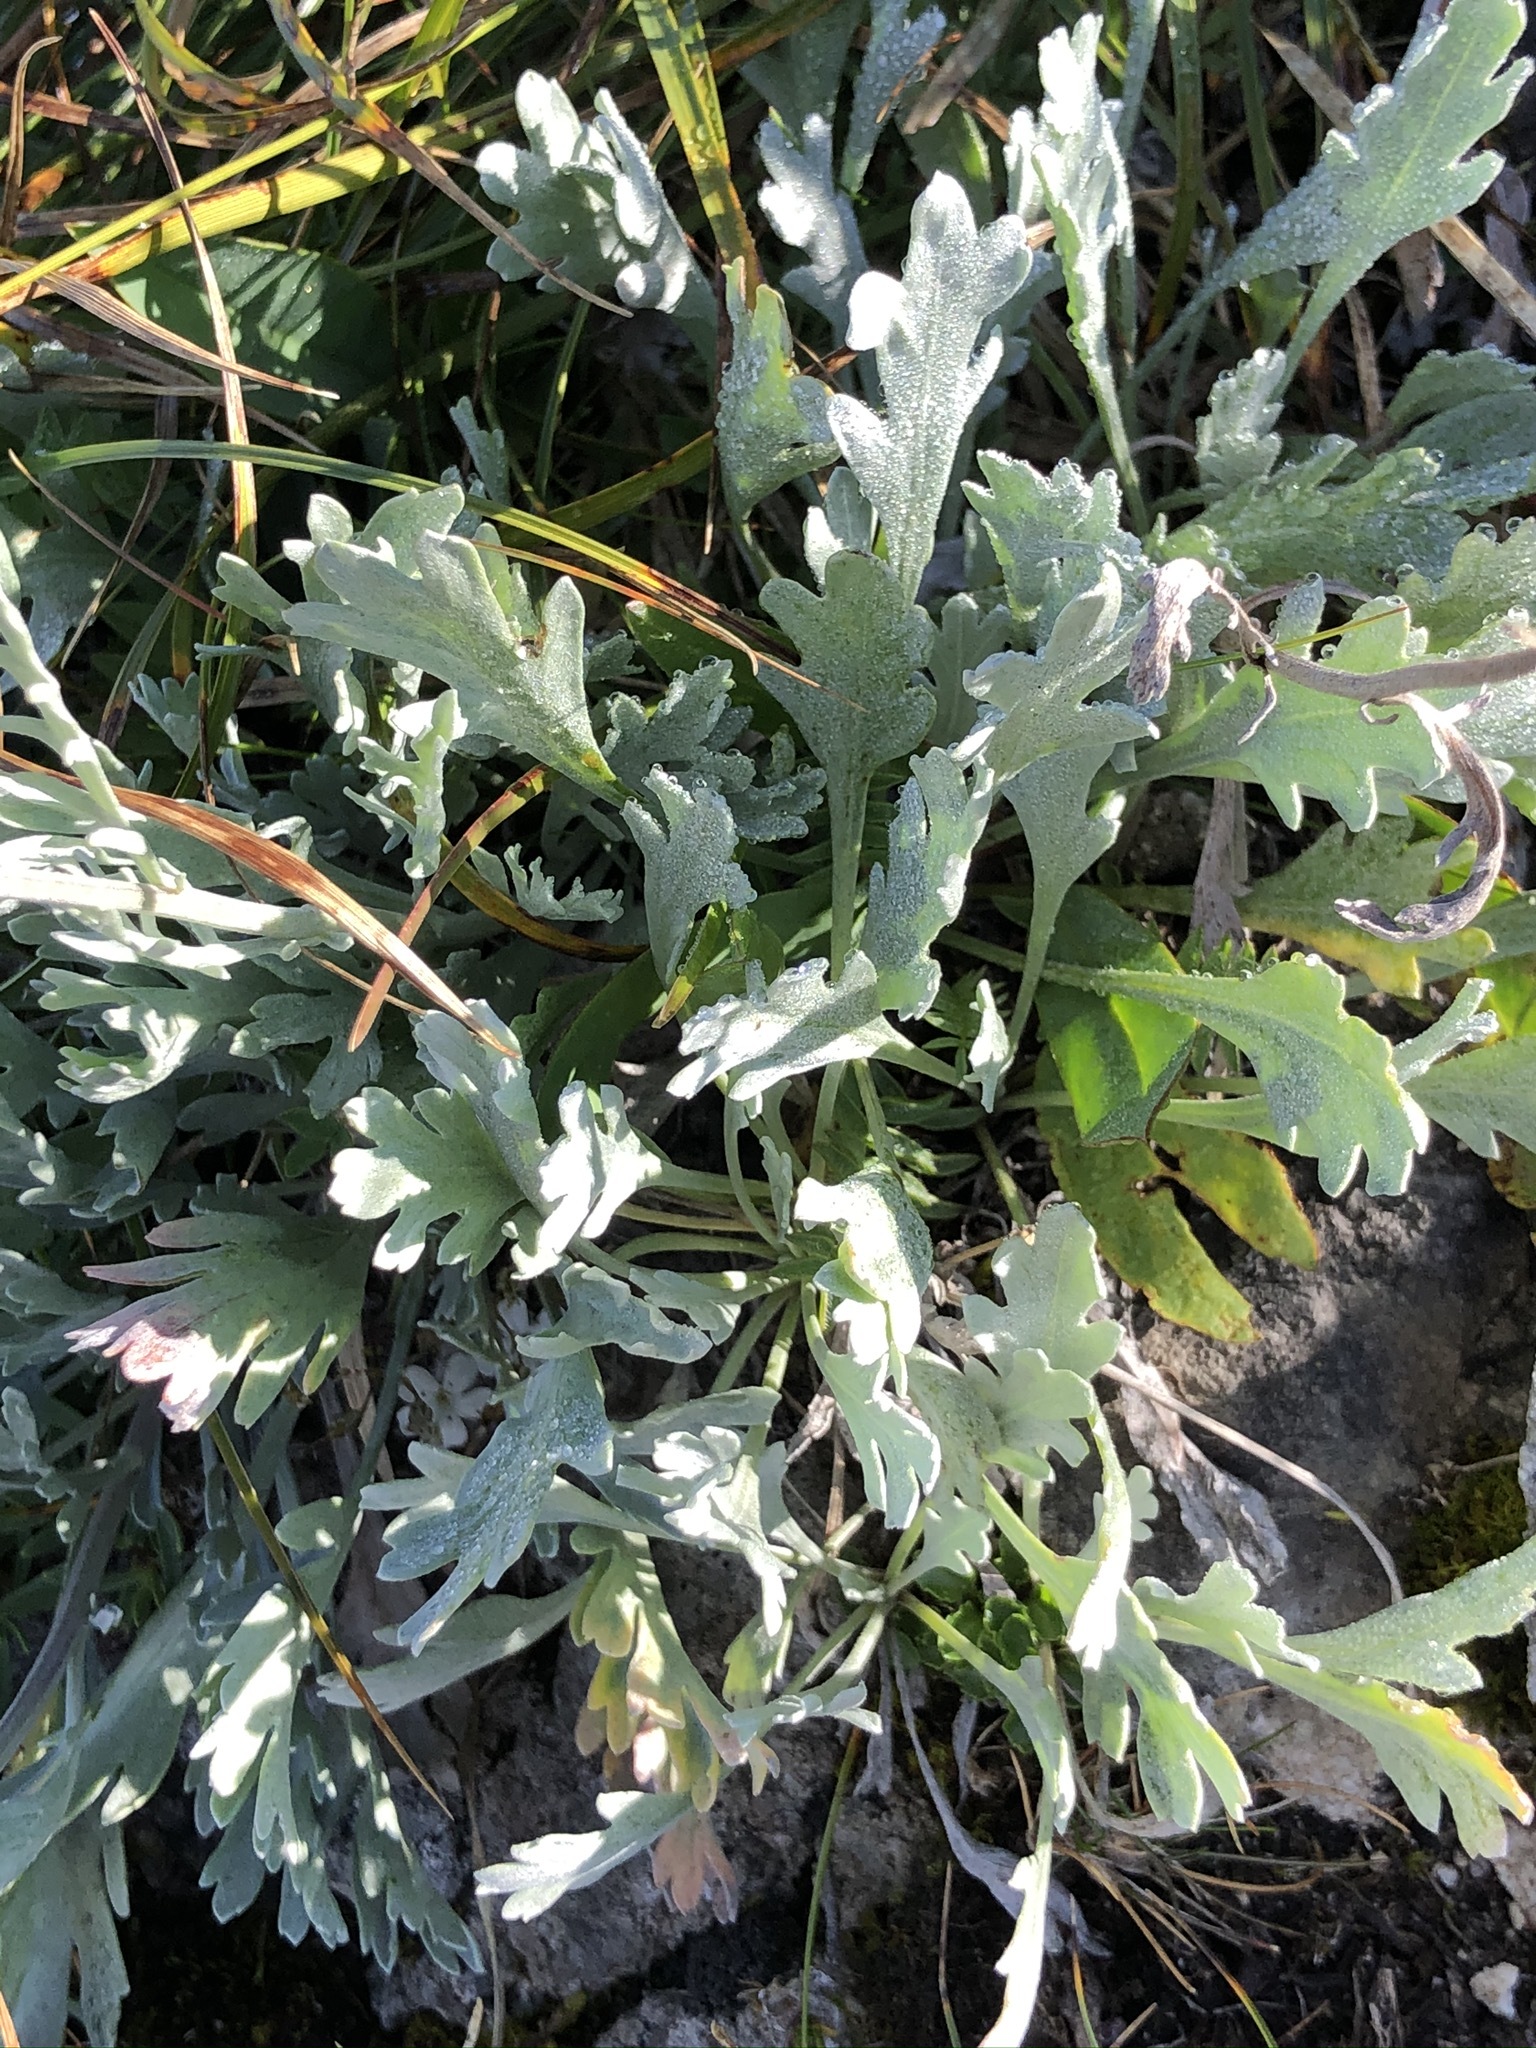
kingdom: Plantae
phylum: Tracheophyta
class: Magnoliopsida
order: Asterales
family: Asteraceae
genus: Achillea
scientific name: Achillea clavennae
